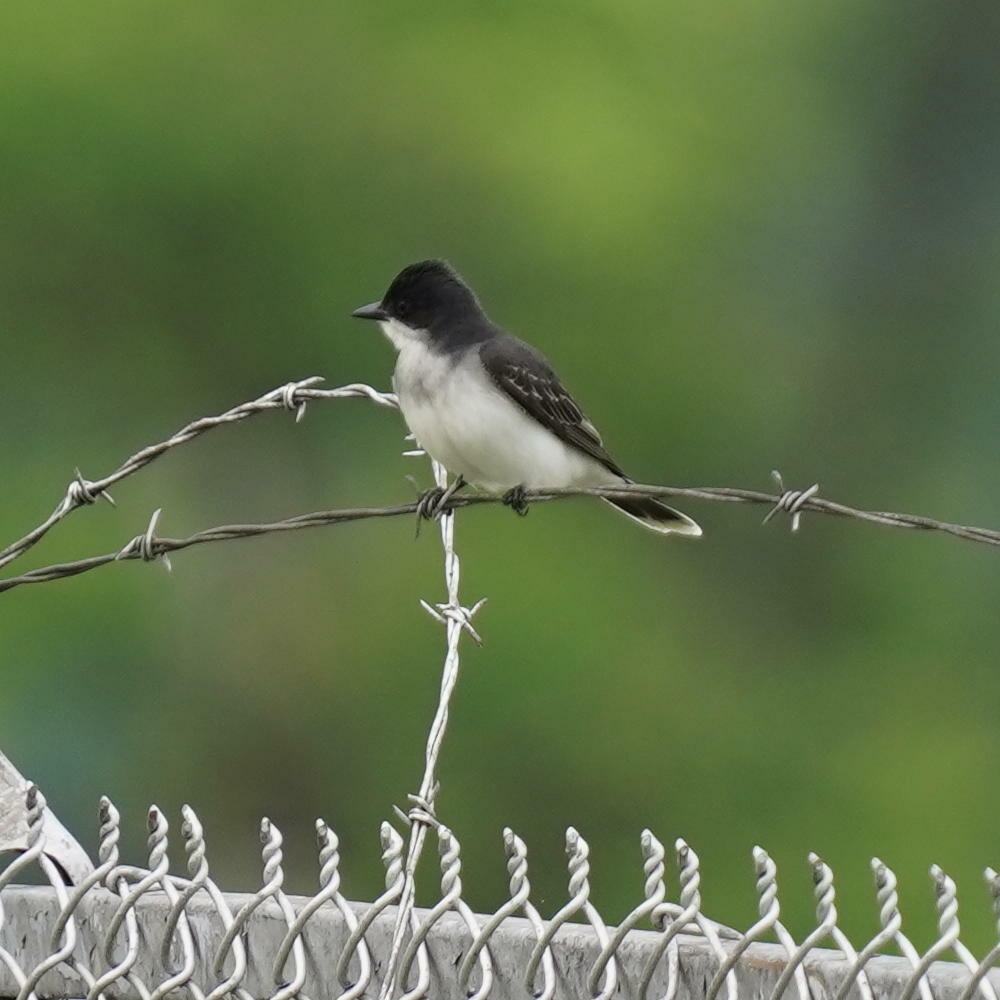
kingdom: Animalia
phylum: Chordata
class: Aves
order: Passeriformes
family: Tyrannidae
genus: Tyrannus
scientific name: Tyrannus tyrannus
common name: Eastern kingbird
